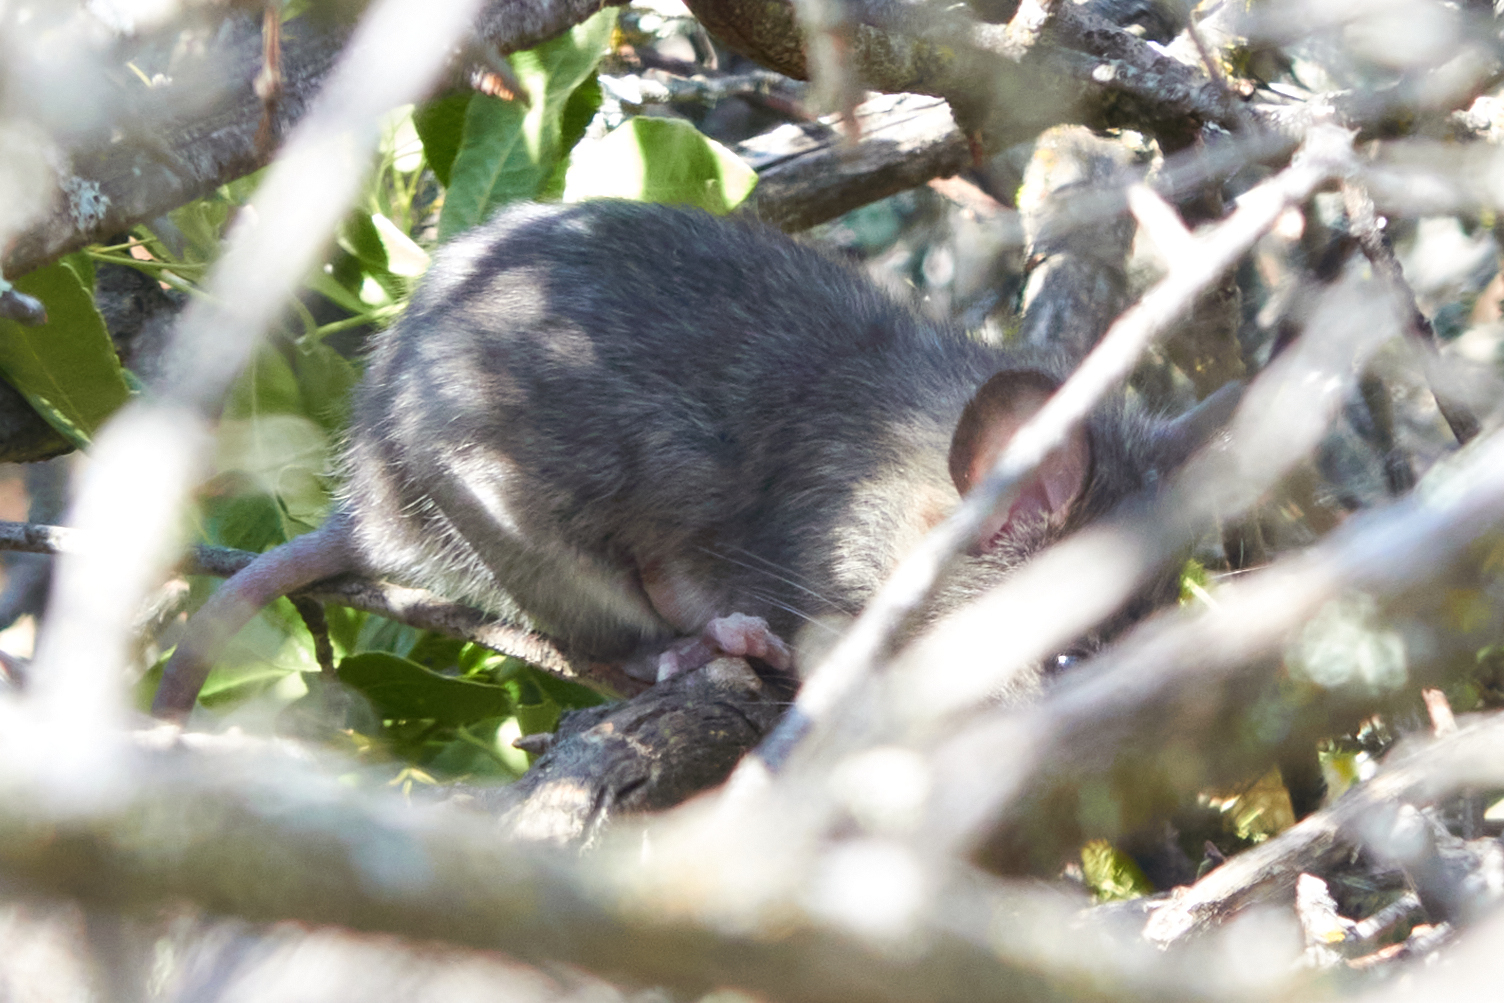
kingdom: Animalia
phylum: Chordata
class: Mammalia
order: Rodentia
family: Cricetidae
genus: Neotoma
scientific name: Neotoma fuscipes
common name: Dusky-footed woodrat
